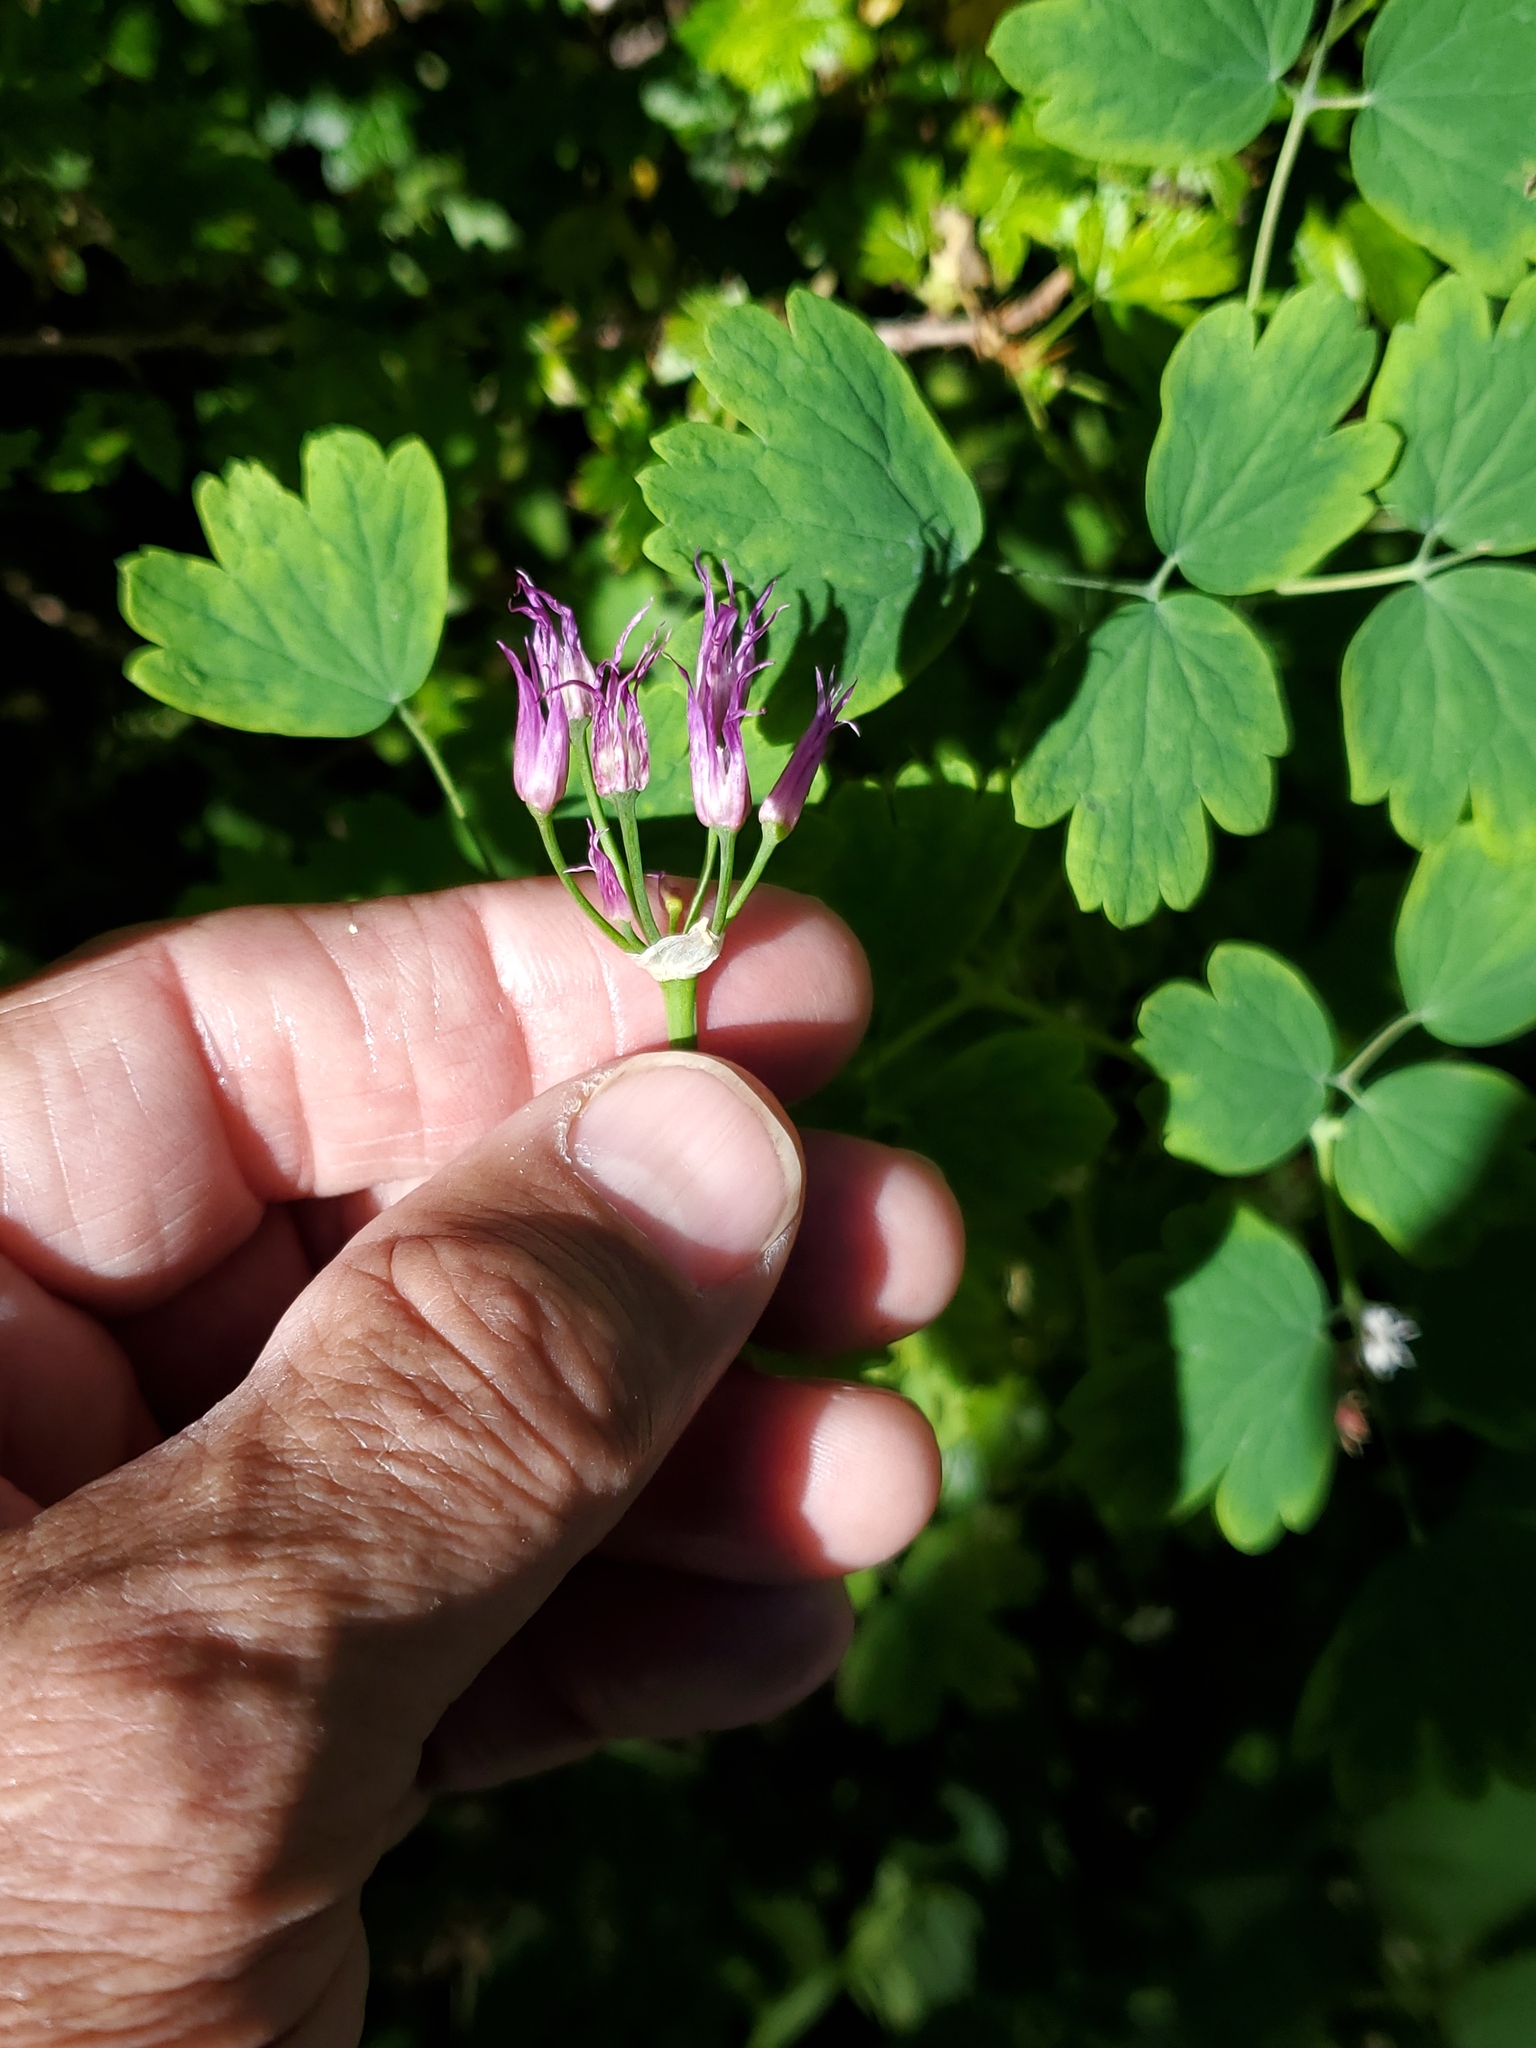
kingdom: Plantae
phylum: Tracheophyta
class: Liliopsida
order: Asparagales
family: Amaryllidaceae
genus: Allium
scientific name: Allium brevistylum
